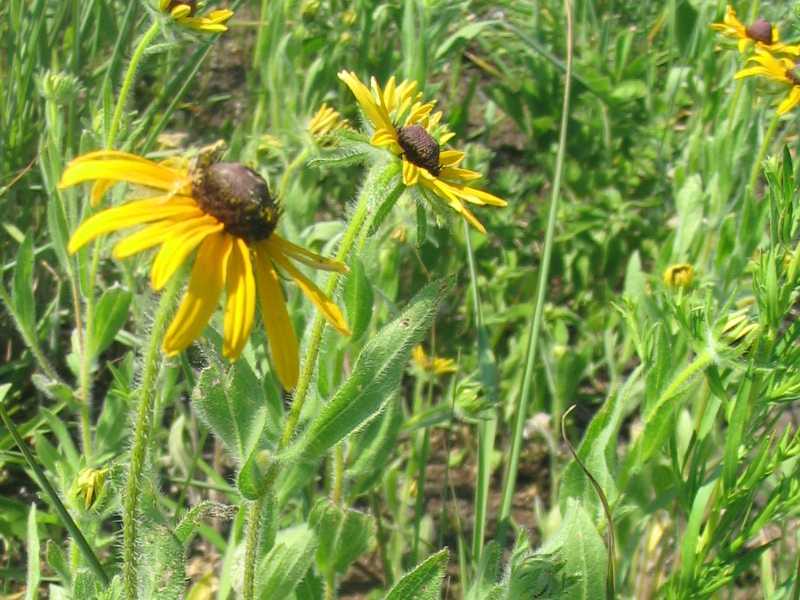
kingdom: Plantae
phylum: Tracheophyta
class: Magnoliopsida
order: Asterales
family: Asteraceae
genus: Rudbeckia
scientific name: Rudbeckia hirta
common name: Black-eyed-susan
